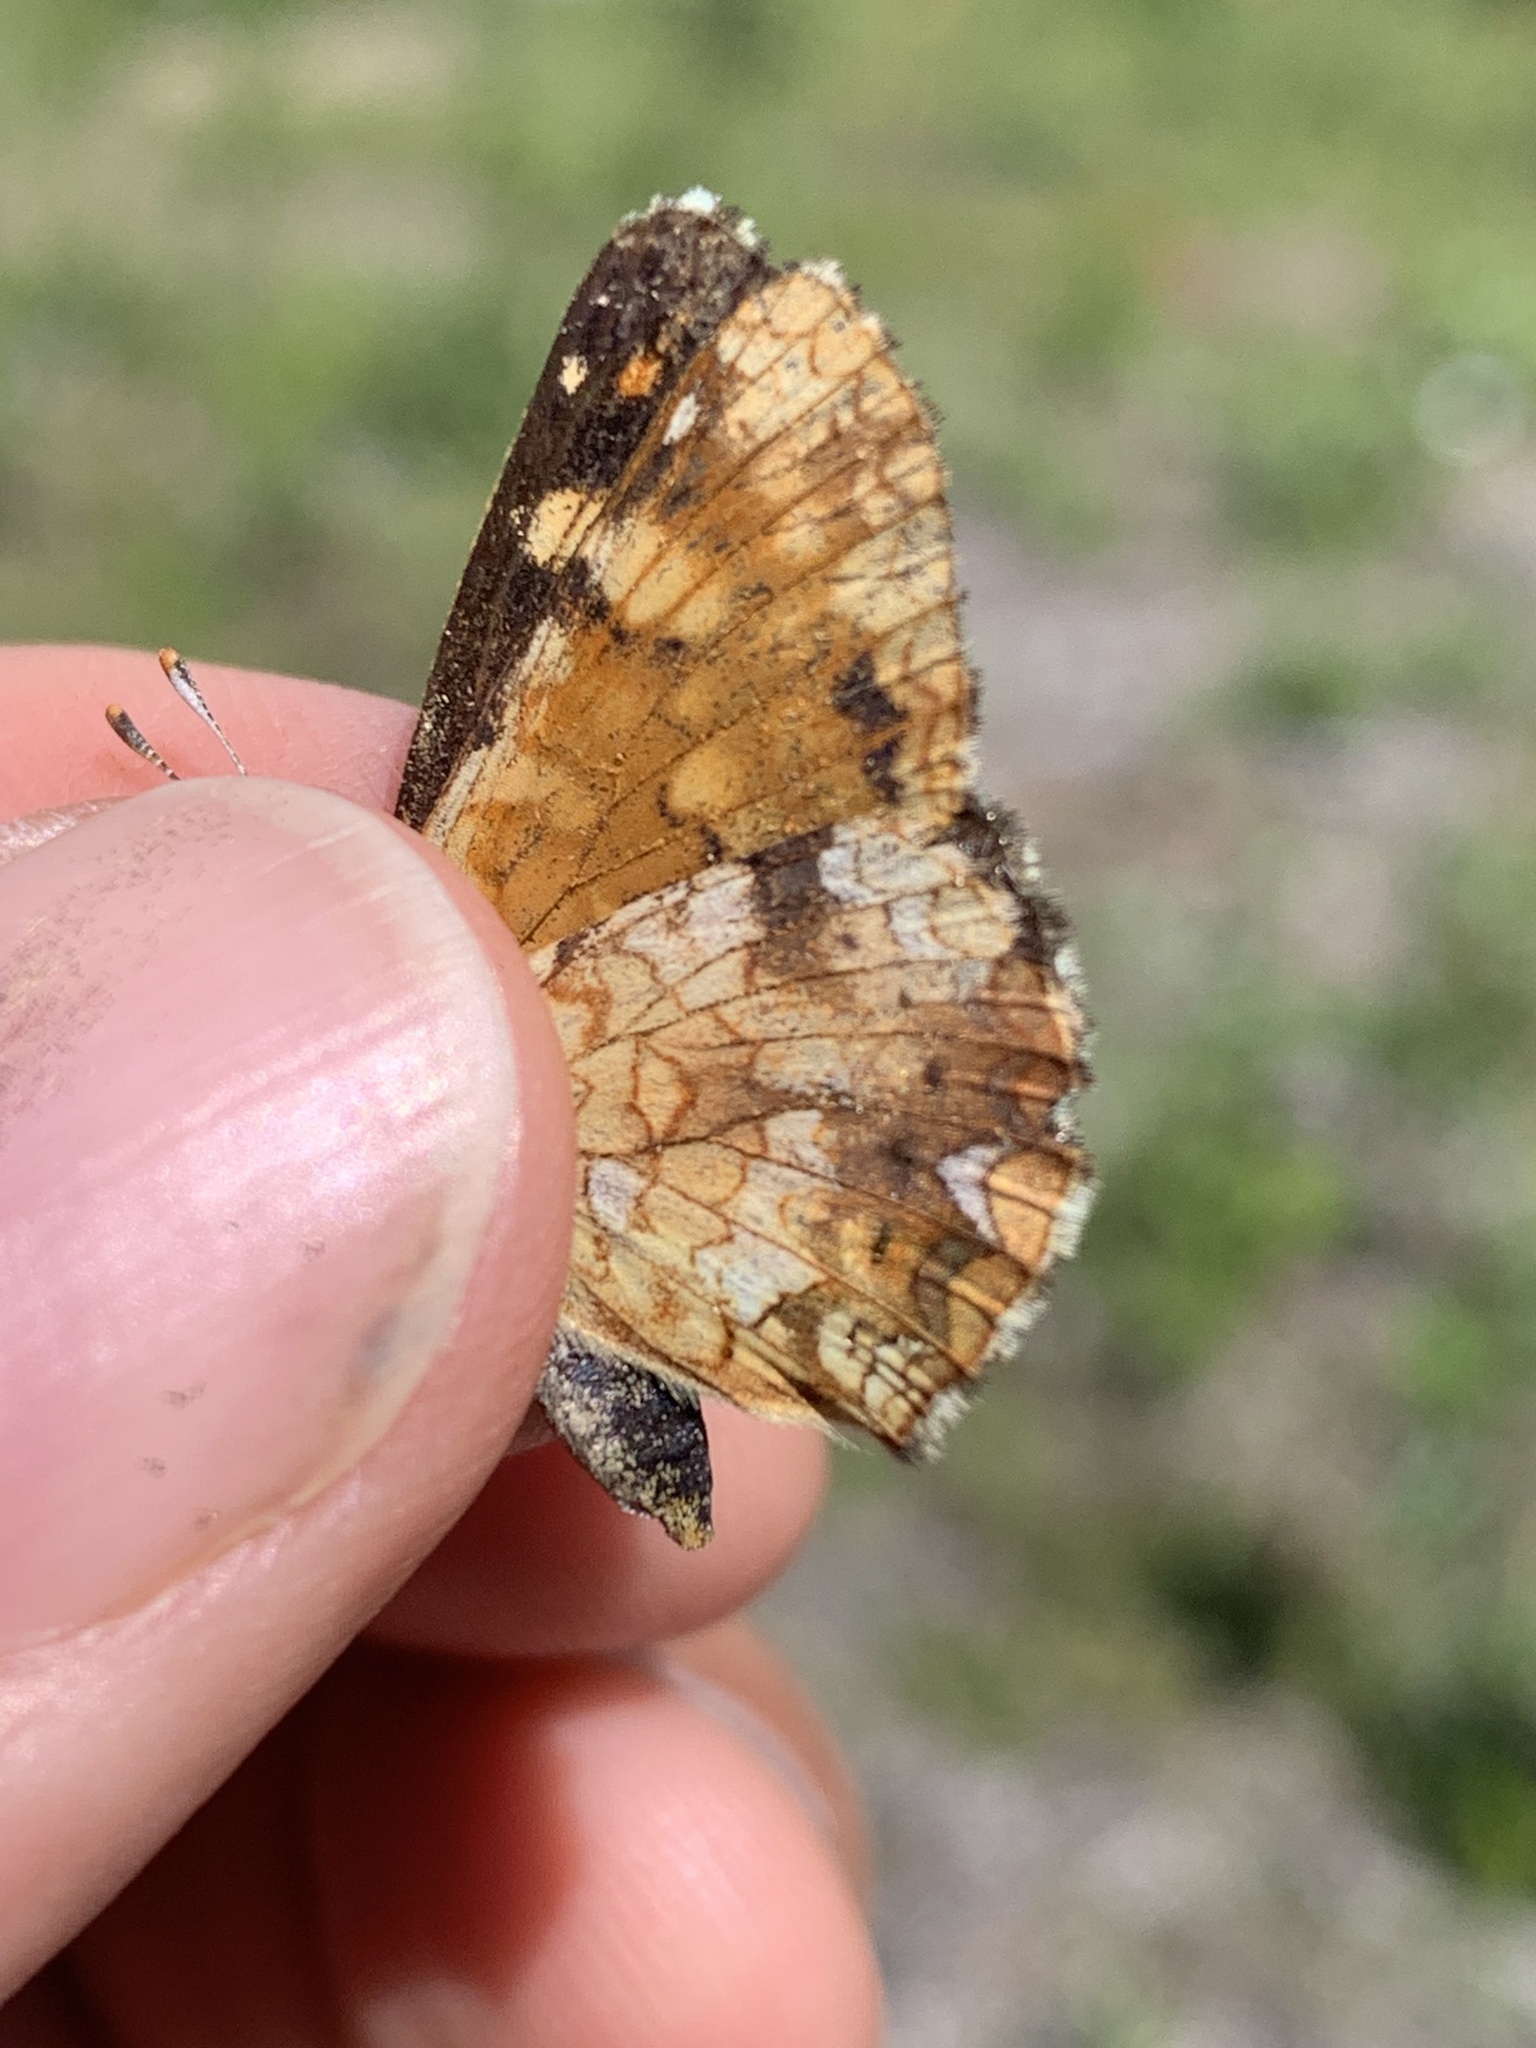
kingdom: Animalia
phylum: Arthropoda
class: Insecta
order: Lepidoptera
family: Nymphalidae
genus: Phyciodes
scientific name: Phyciodes tharos
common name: Pearl crescent
